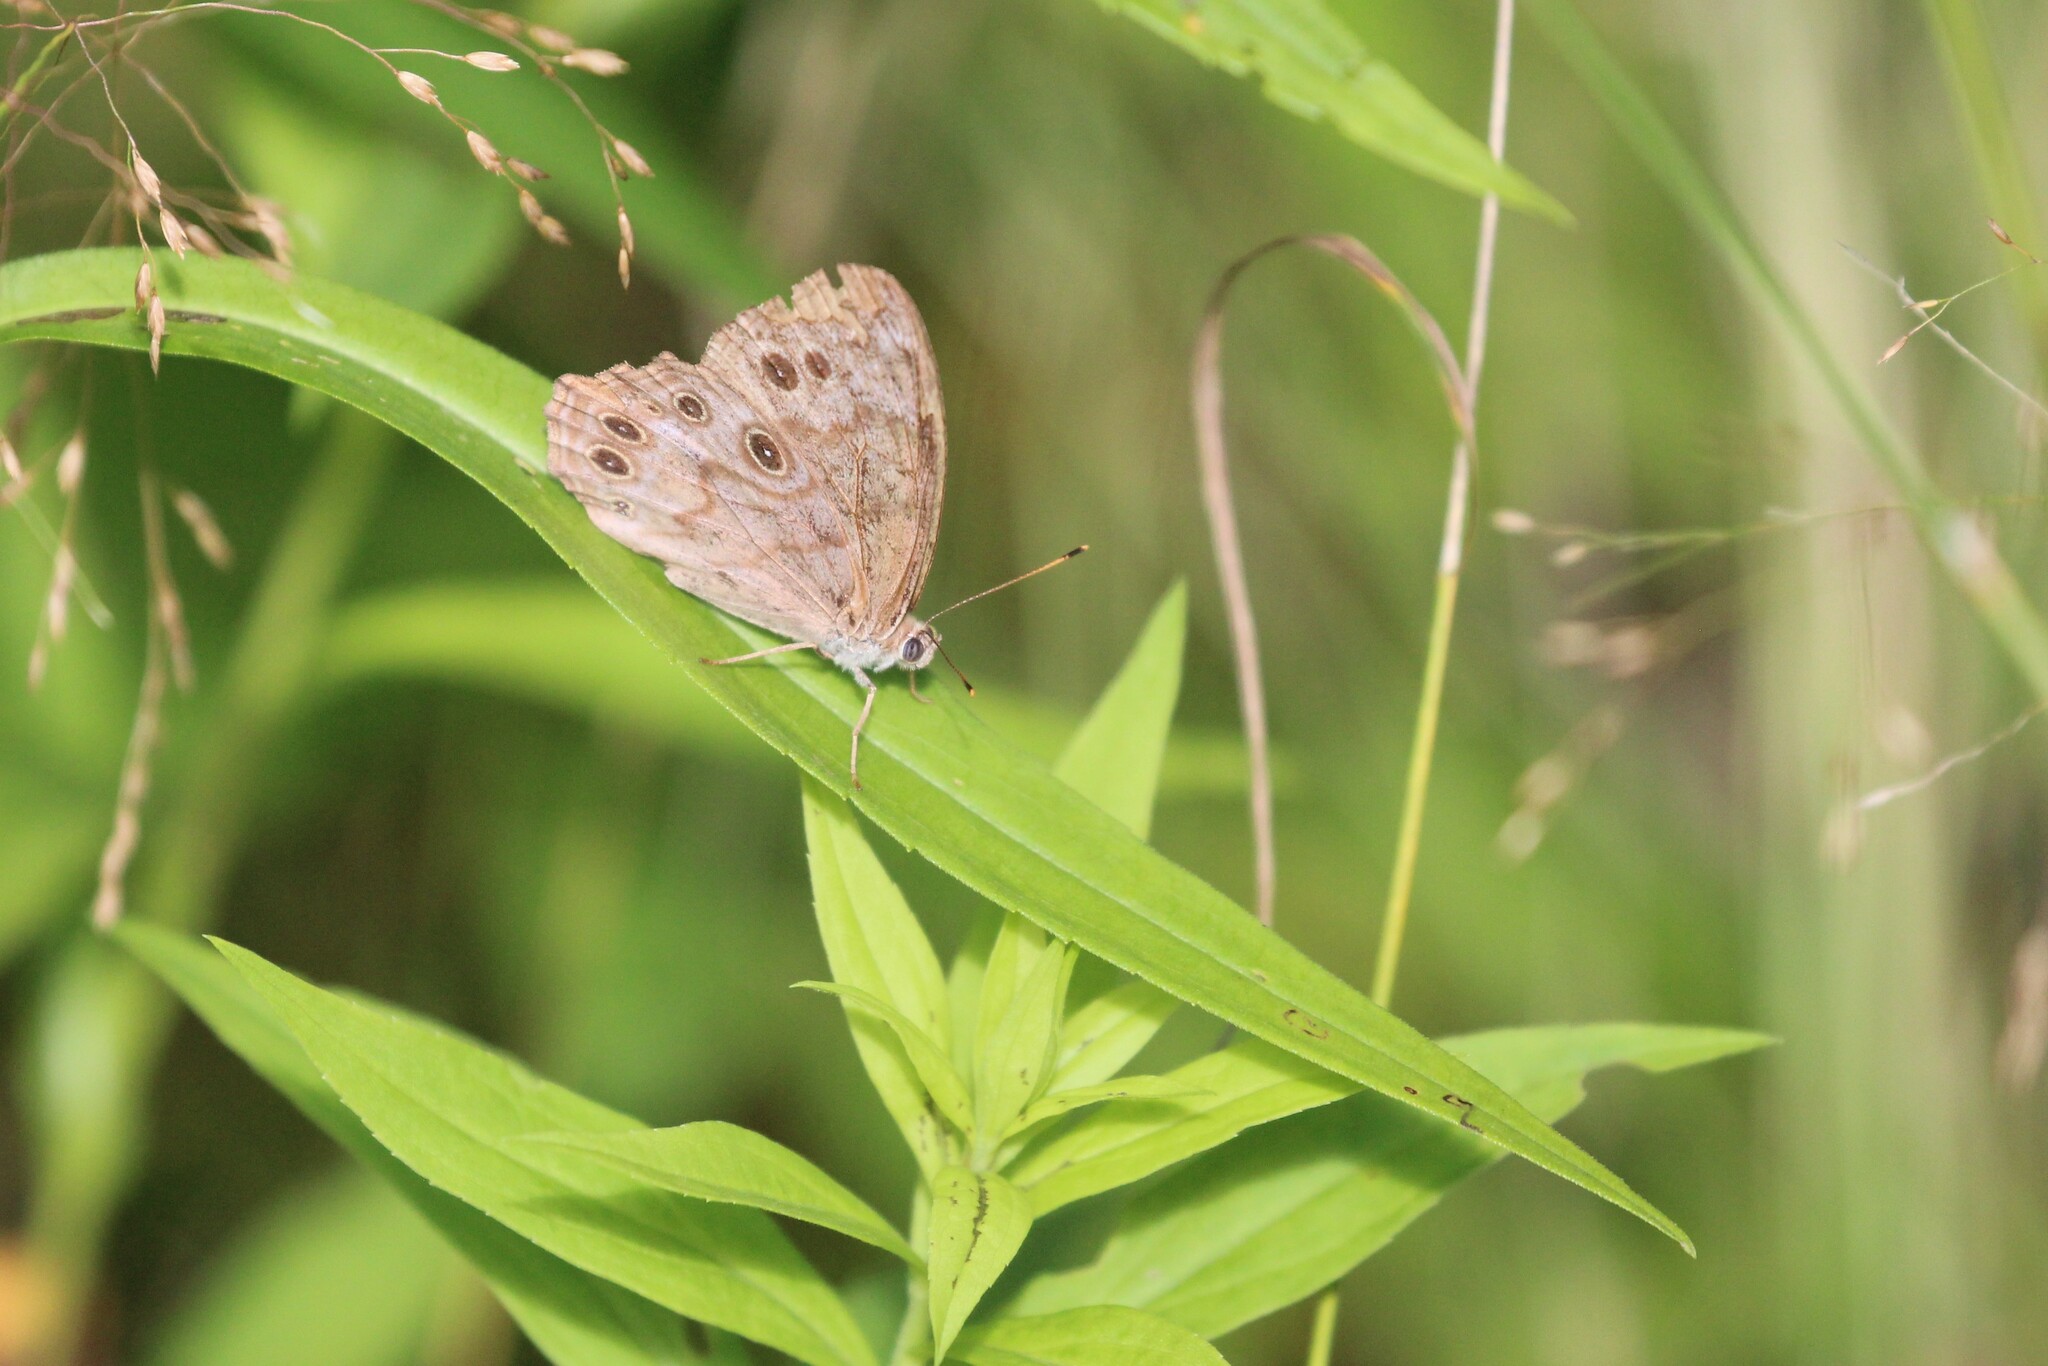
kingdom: Animalia
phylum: Arthropoda
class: Insecta
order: Lepidoptera
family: Nymphalidae
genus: Lethe
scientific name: Lethe anthedon
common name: Northern pearly-eye
